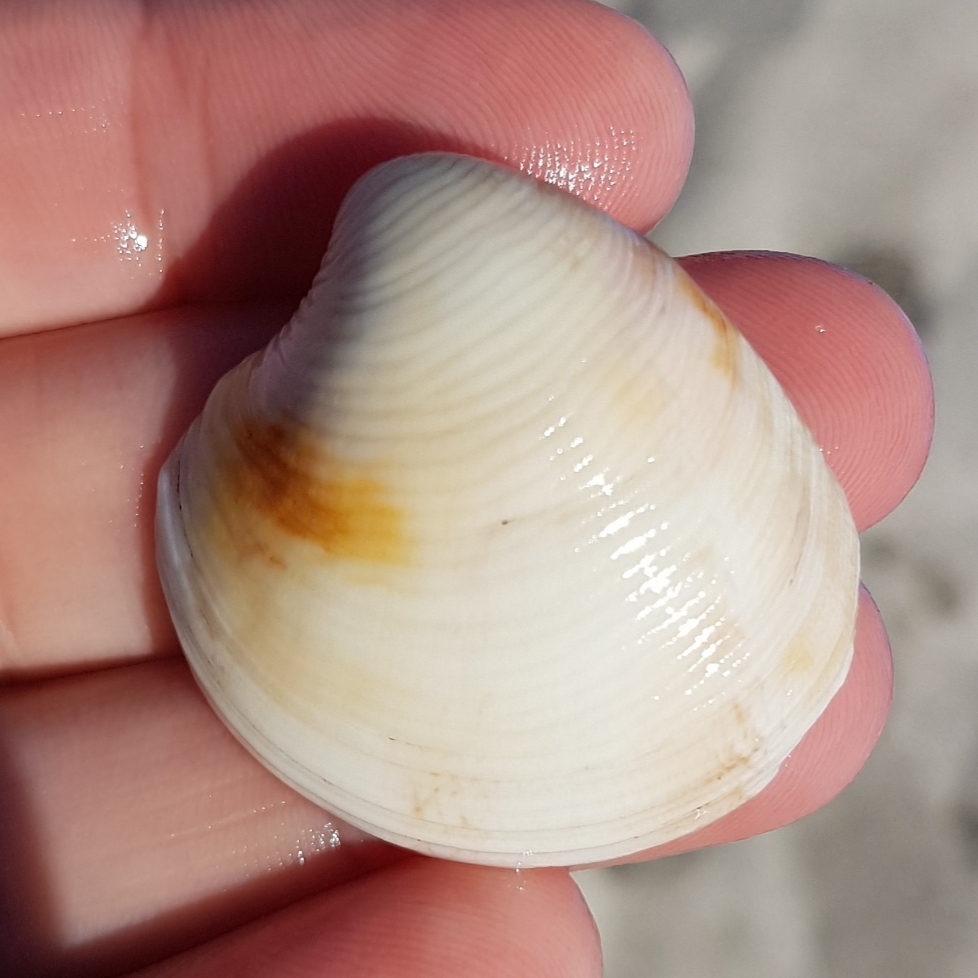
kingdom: Animalia
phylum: Mollusca
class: Bivalvia
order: Venerida
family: Veneridae
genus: Chamelea
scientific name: Chamelea gallina
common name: Chicken venus
